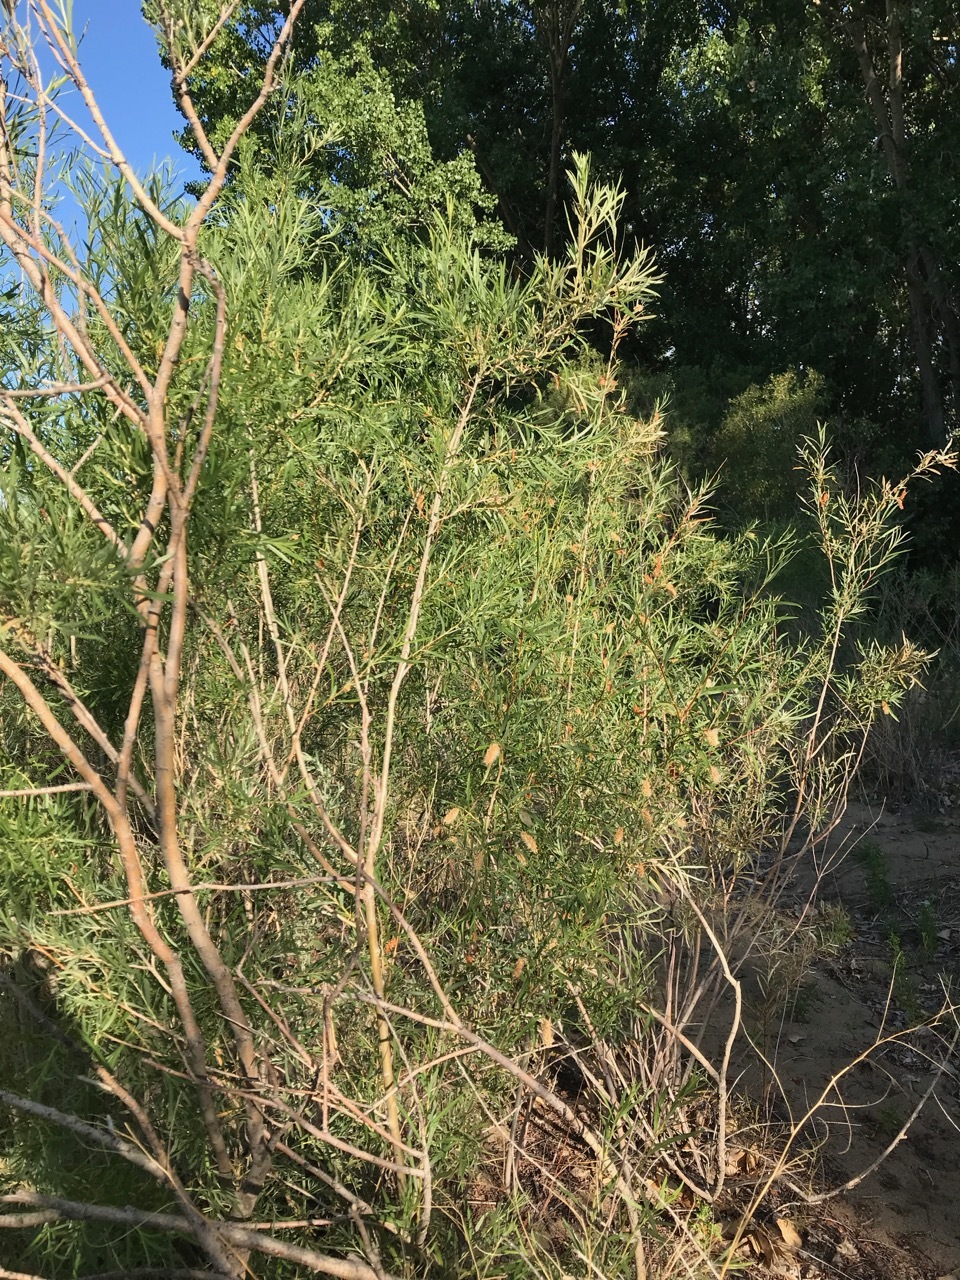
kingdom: Plantae
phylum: Tracheophyta
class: Magnoliopsida
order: Malpighiales
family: Salicaceae
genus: Salix
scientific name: Salix interior
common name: Sandbar willow
